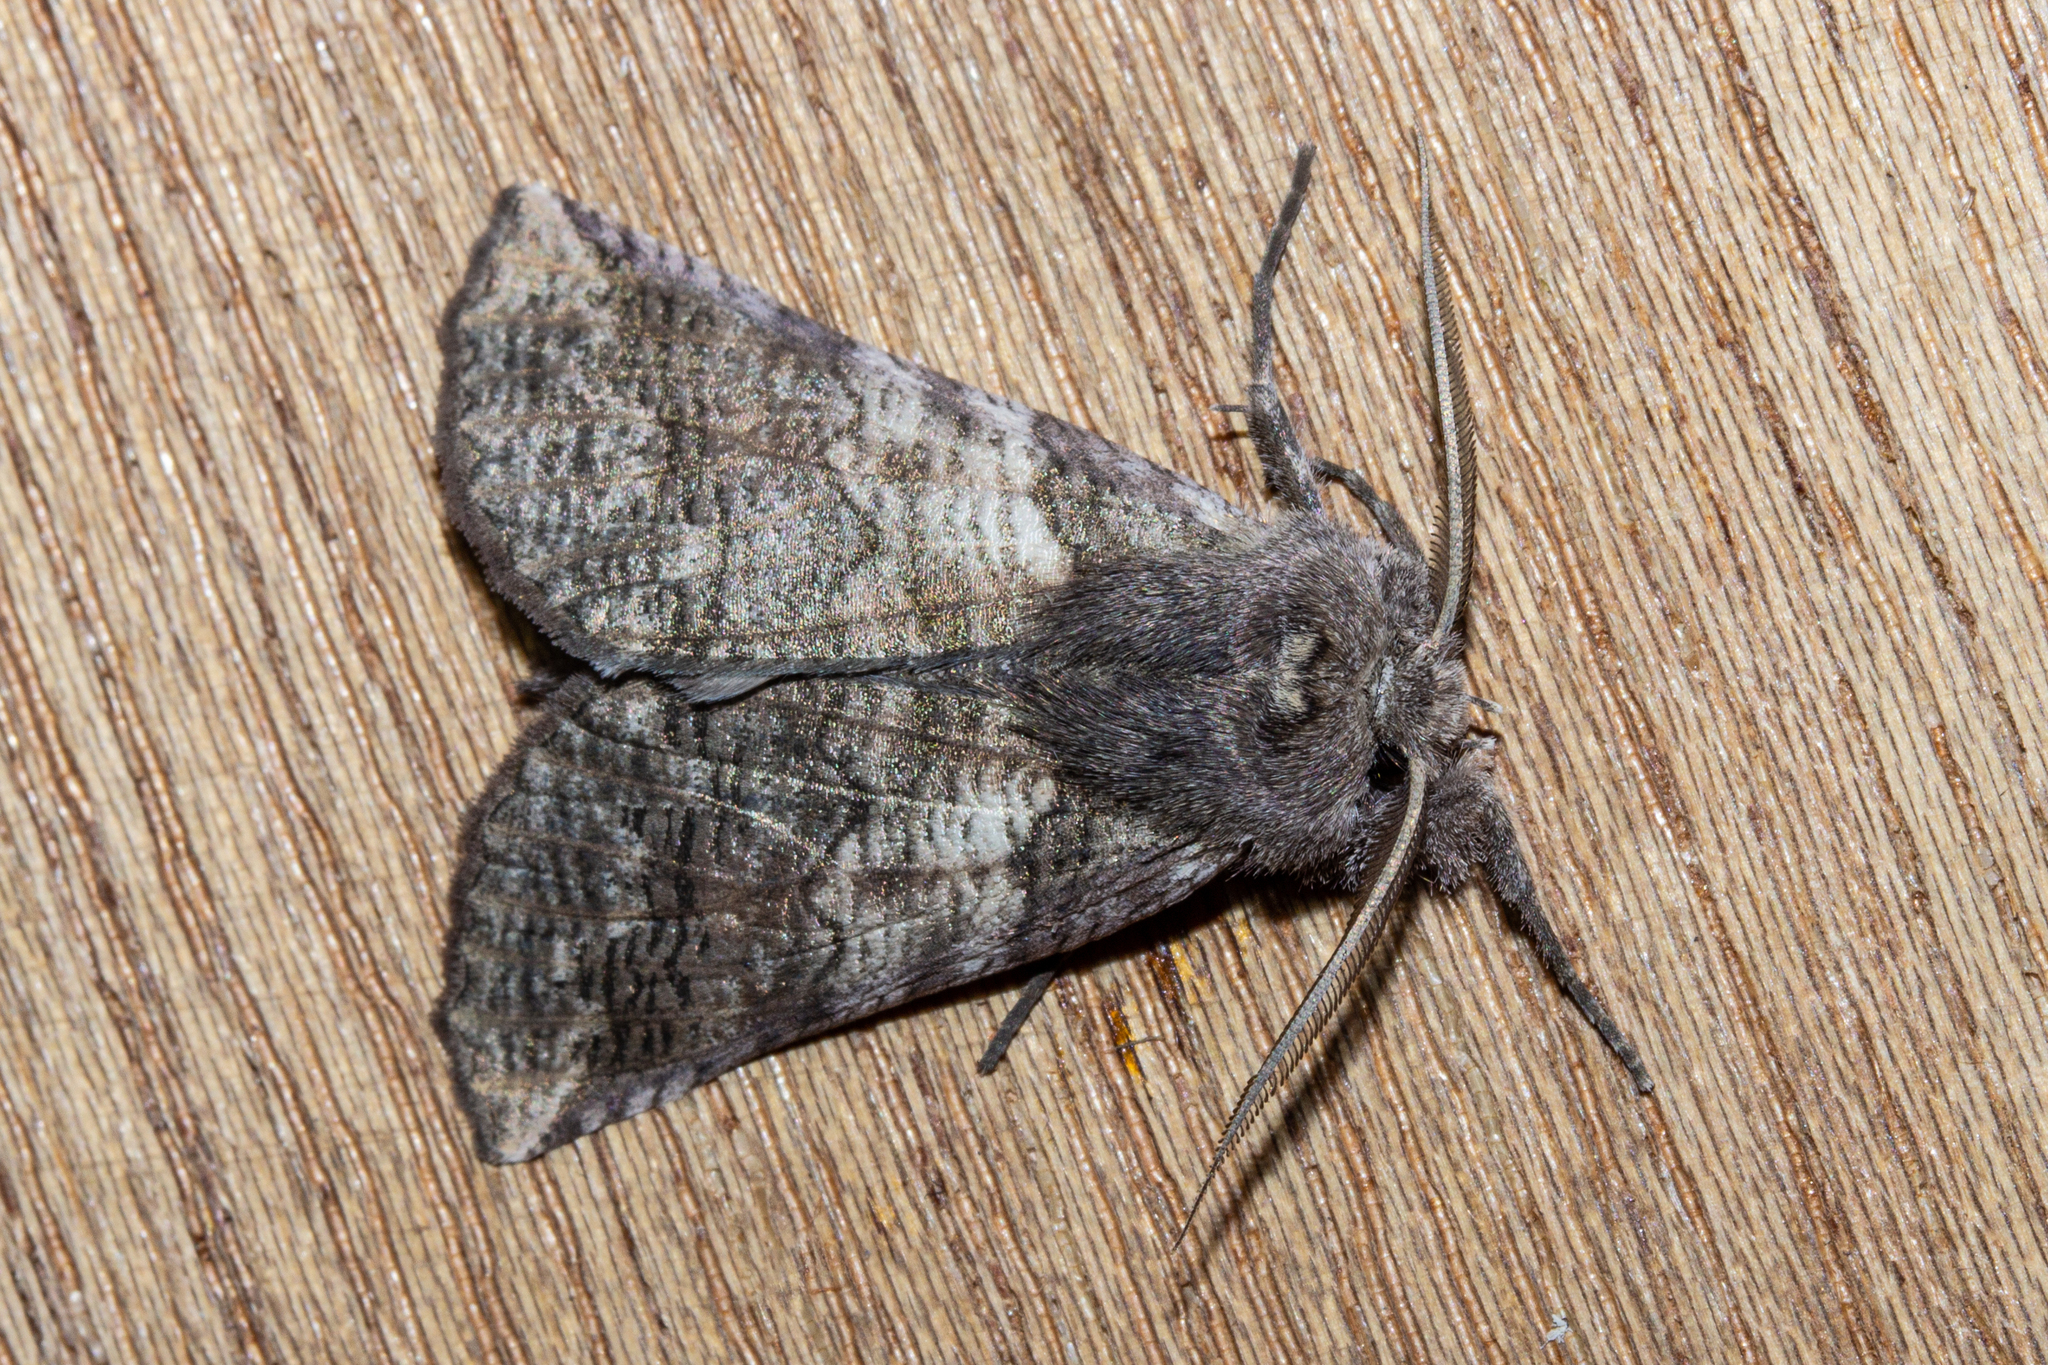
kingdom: Animalia
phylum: Arthropoda
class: Insecta
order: Lepidoptera
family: Geometridae
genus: Declana
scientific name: Declana
